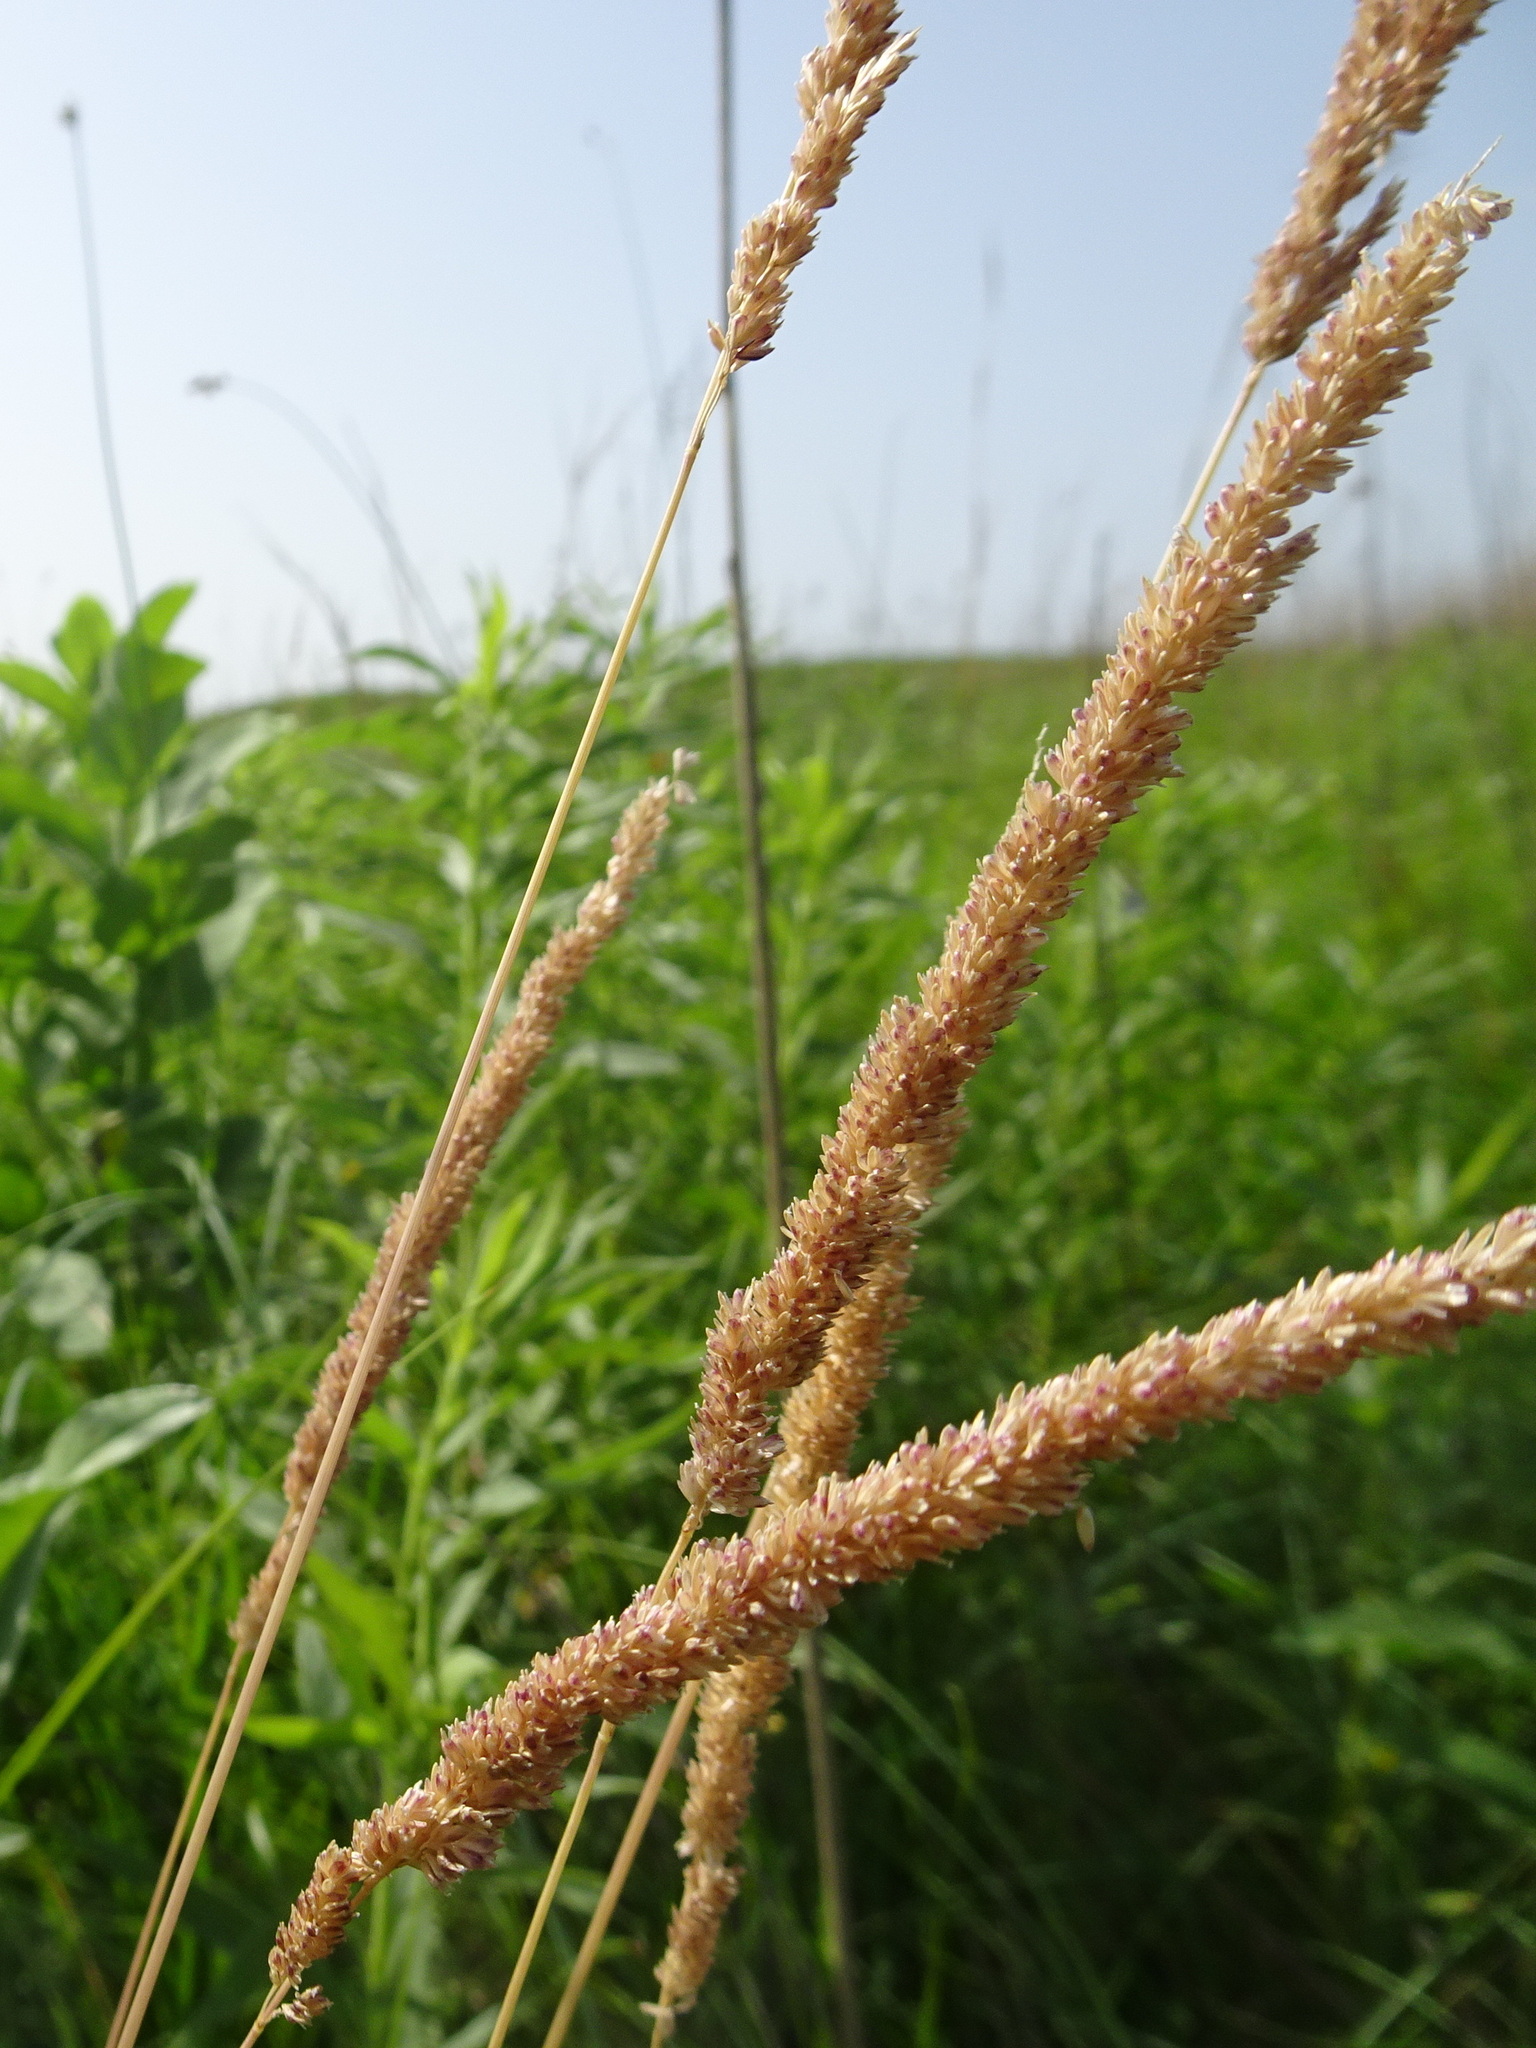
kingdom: Plantae
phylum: Tracheophyta
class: Liliopsida
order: Poales
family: Poaceae
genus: Sphenopholis
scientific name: Sphenopholis obtusata
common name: Prairie grass
